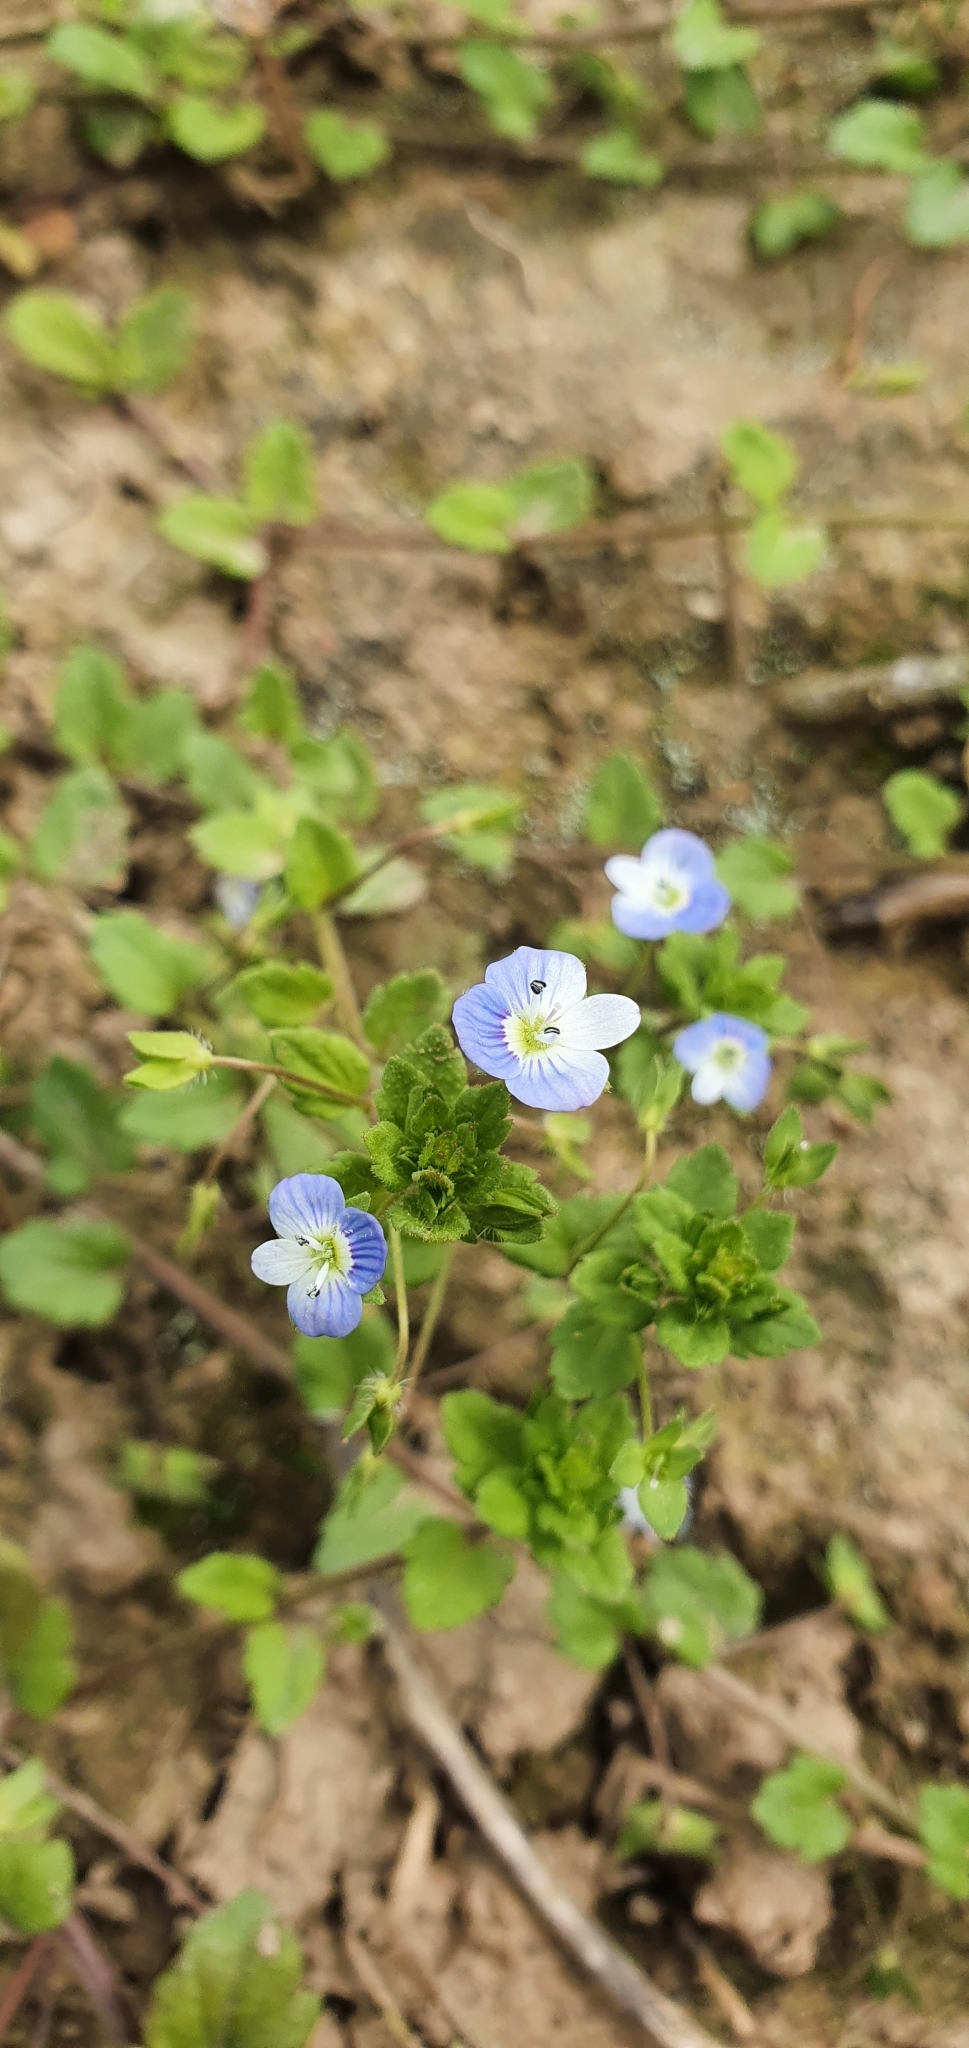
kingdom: Plantae
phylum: Tracheophyta
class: Magnoliopsida
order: Lamiales
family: Plantaginaceae
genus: Veronica
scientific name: Veronica persica
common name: Common field-speedwell
